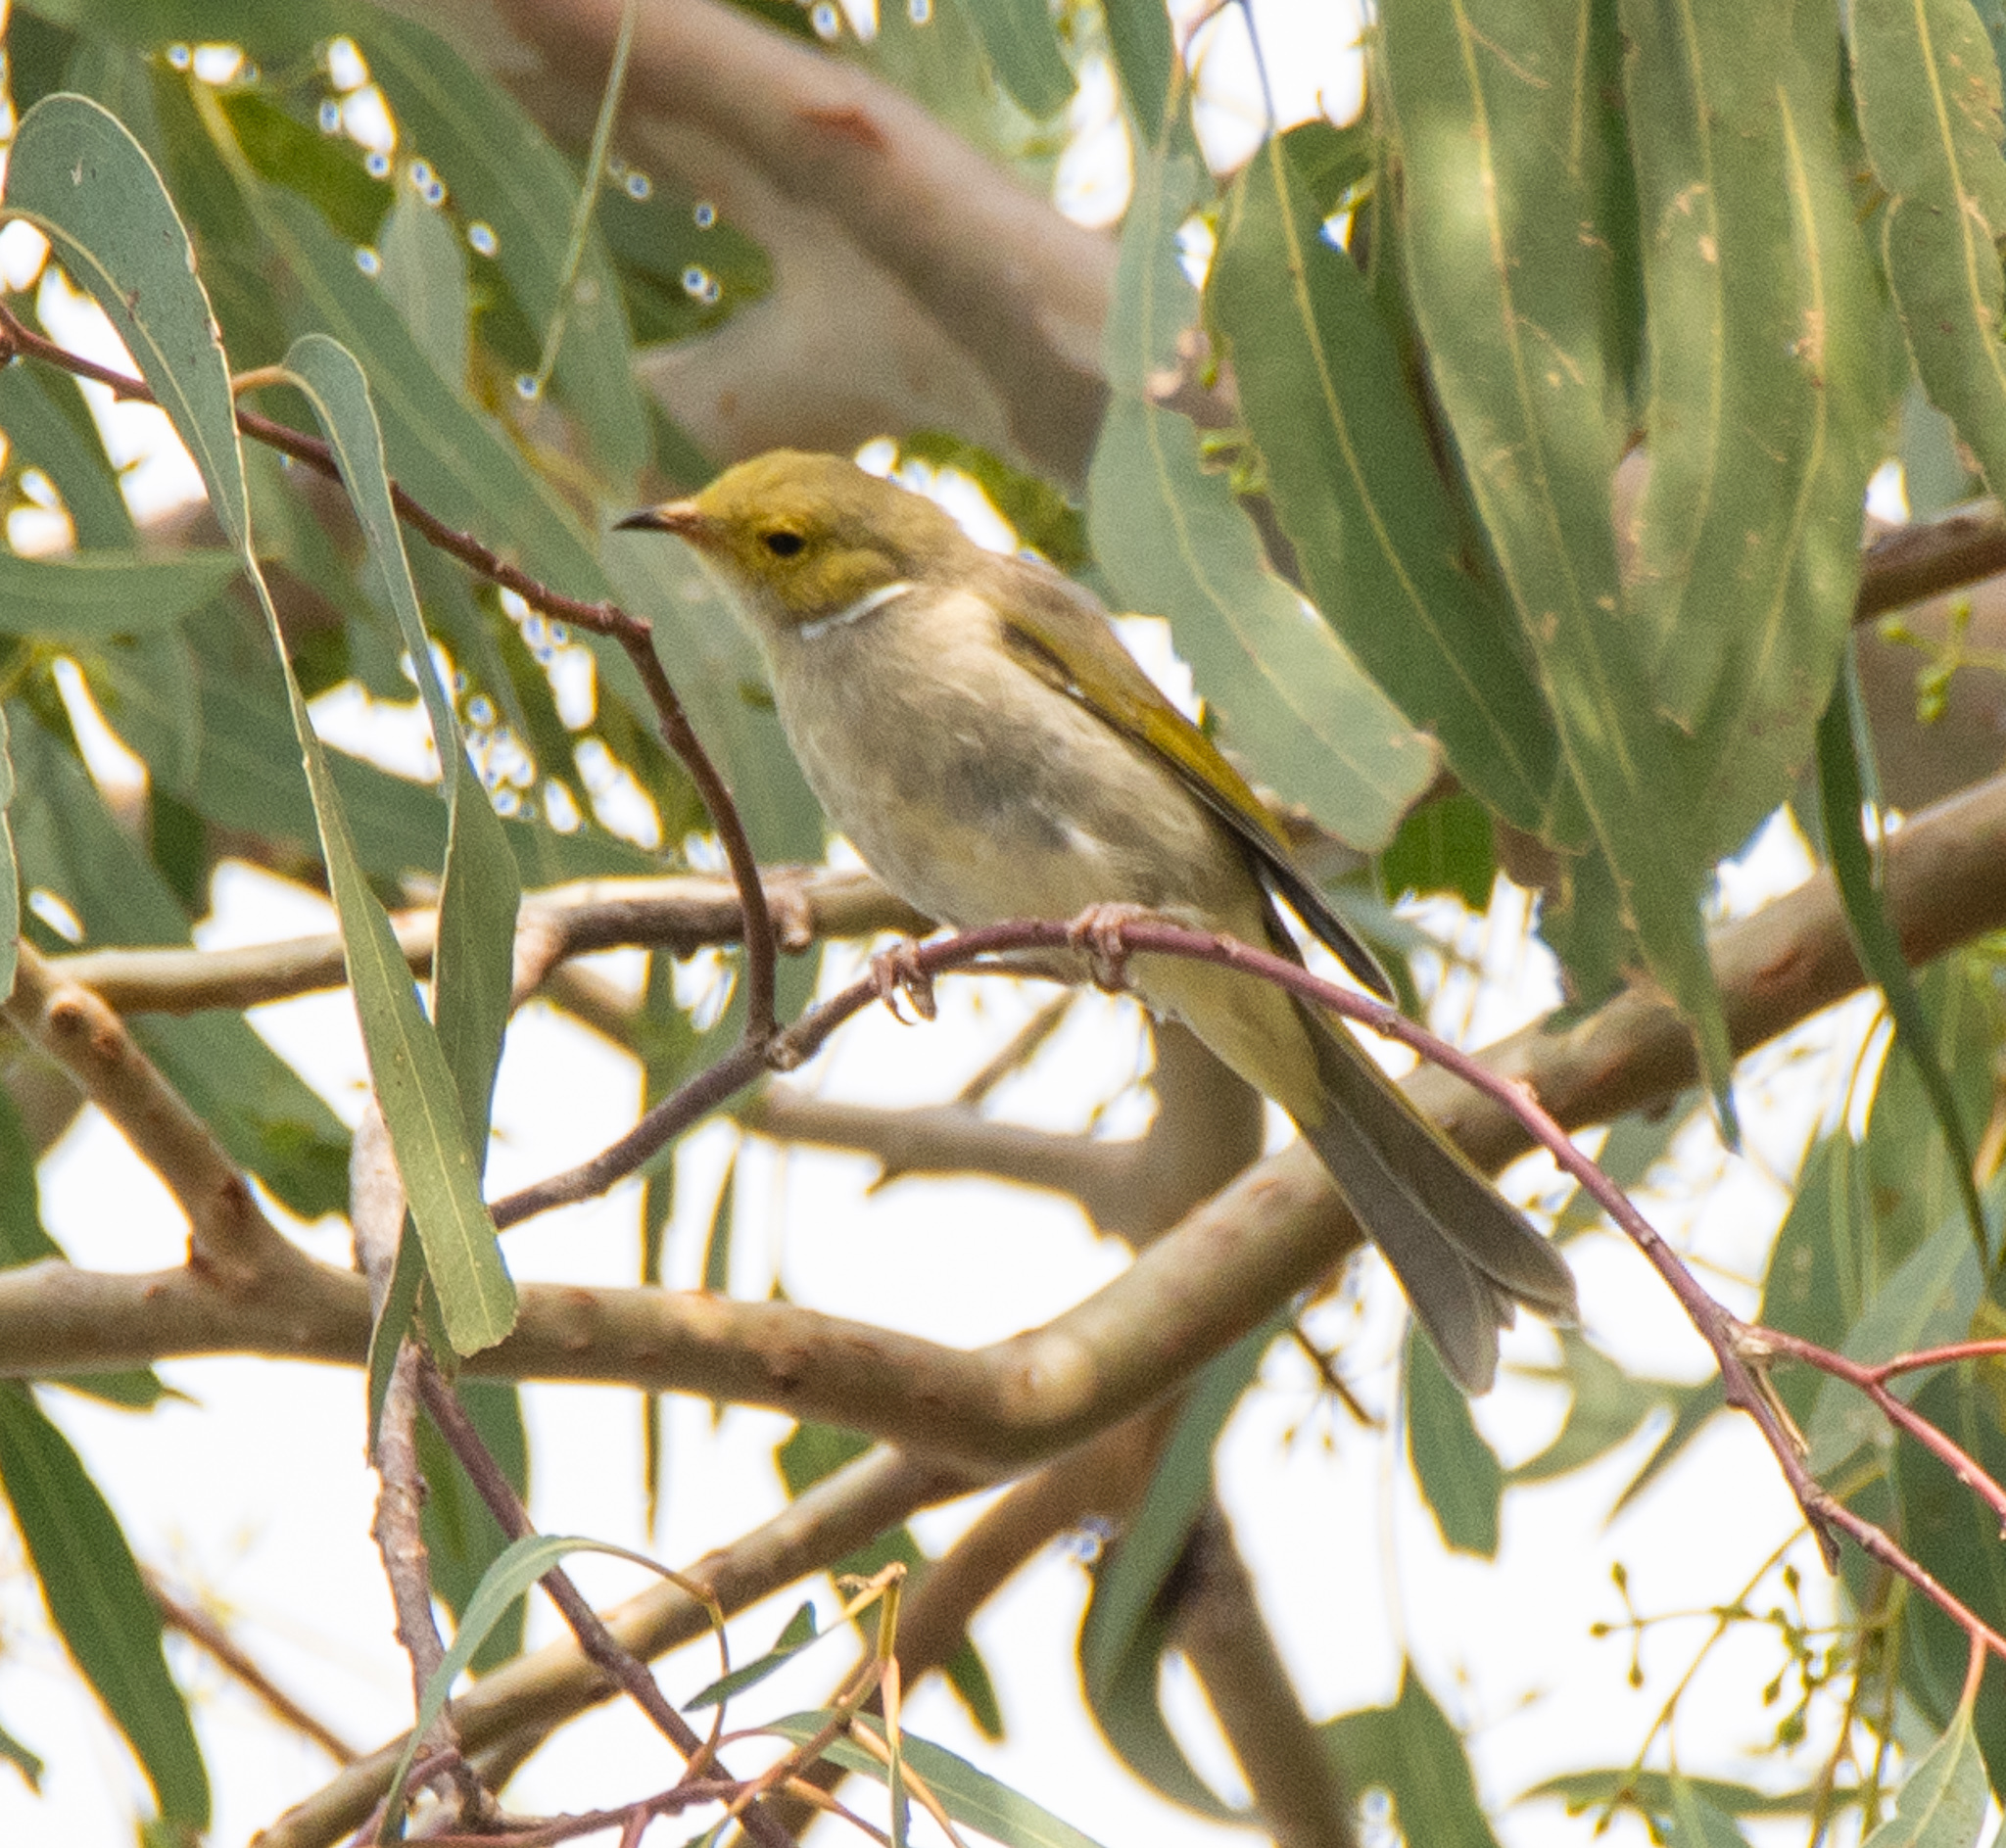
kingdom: Animalia
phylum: Chordata
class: Aves
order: Passeriformes
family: Meliphagidae
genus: Ptilotula
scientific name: Ptilotula penicillata
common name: White-plumed honeyeater
